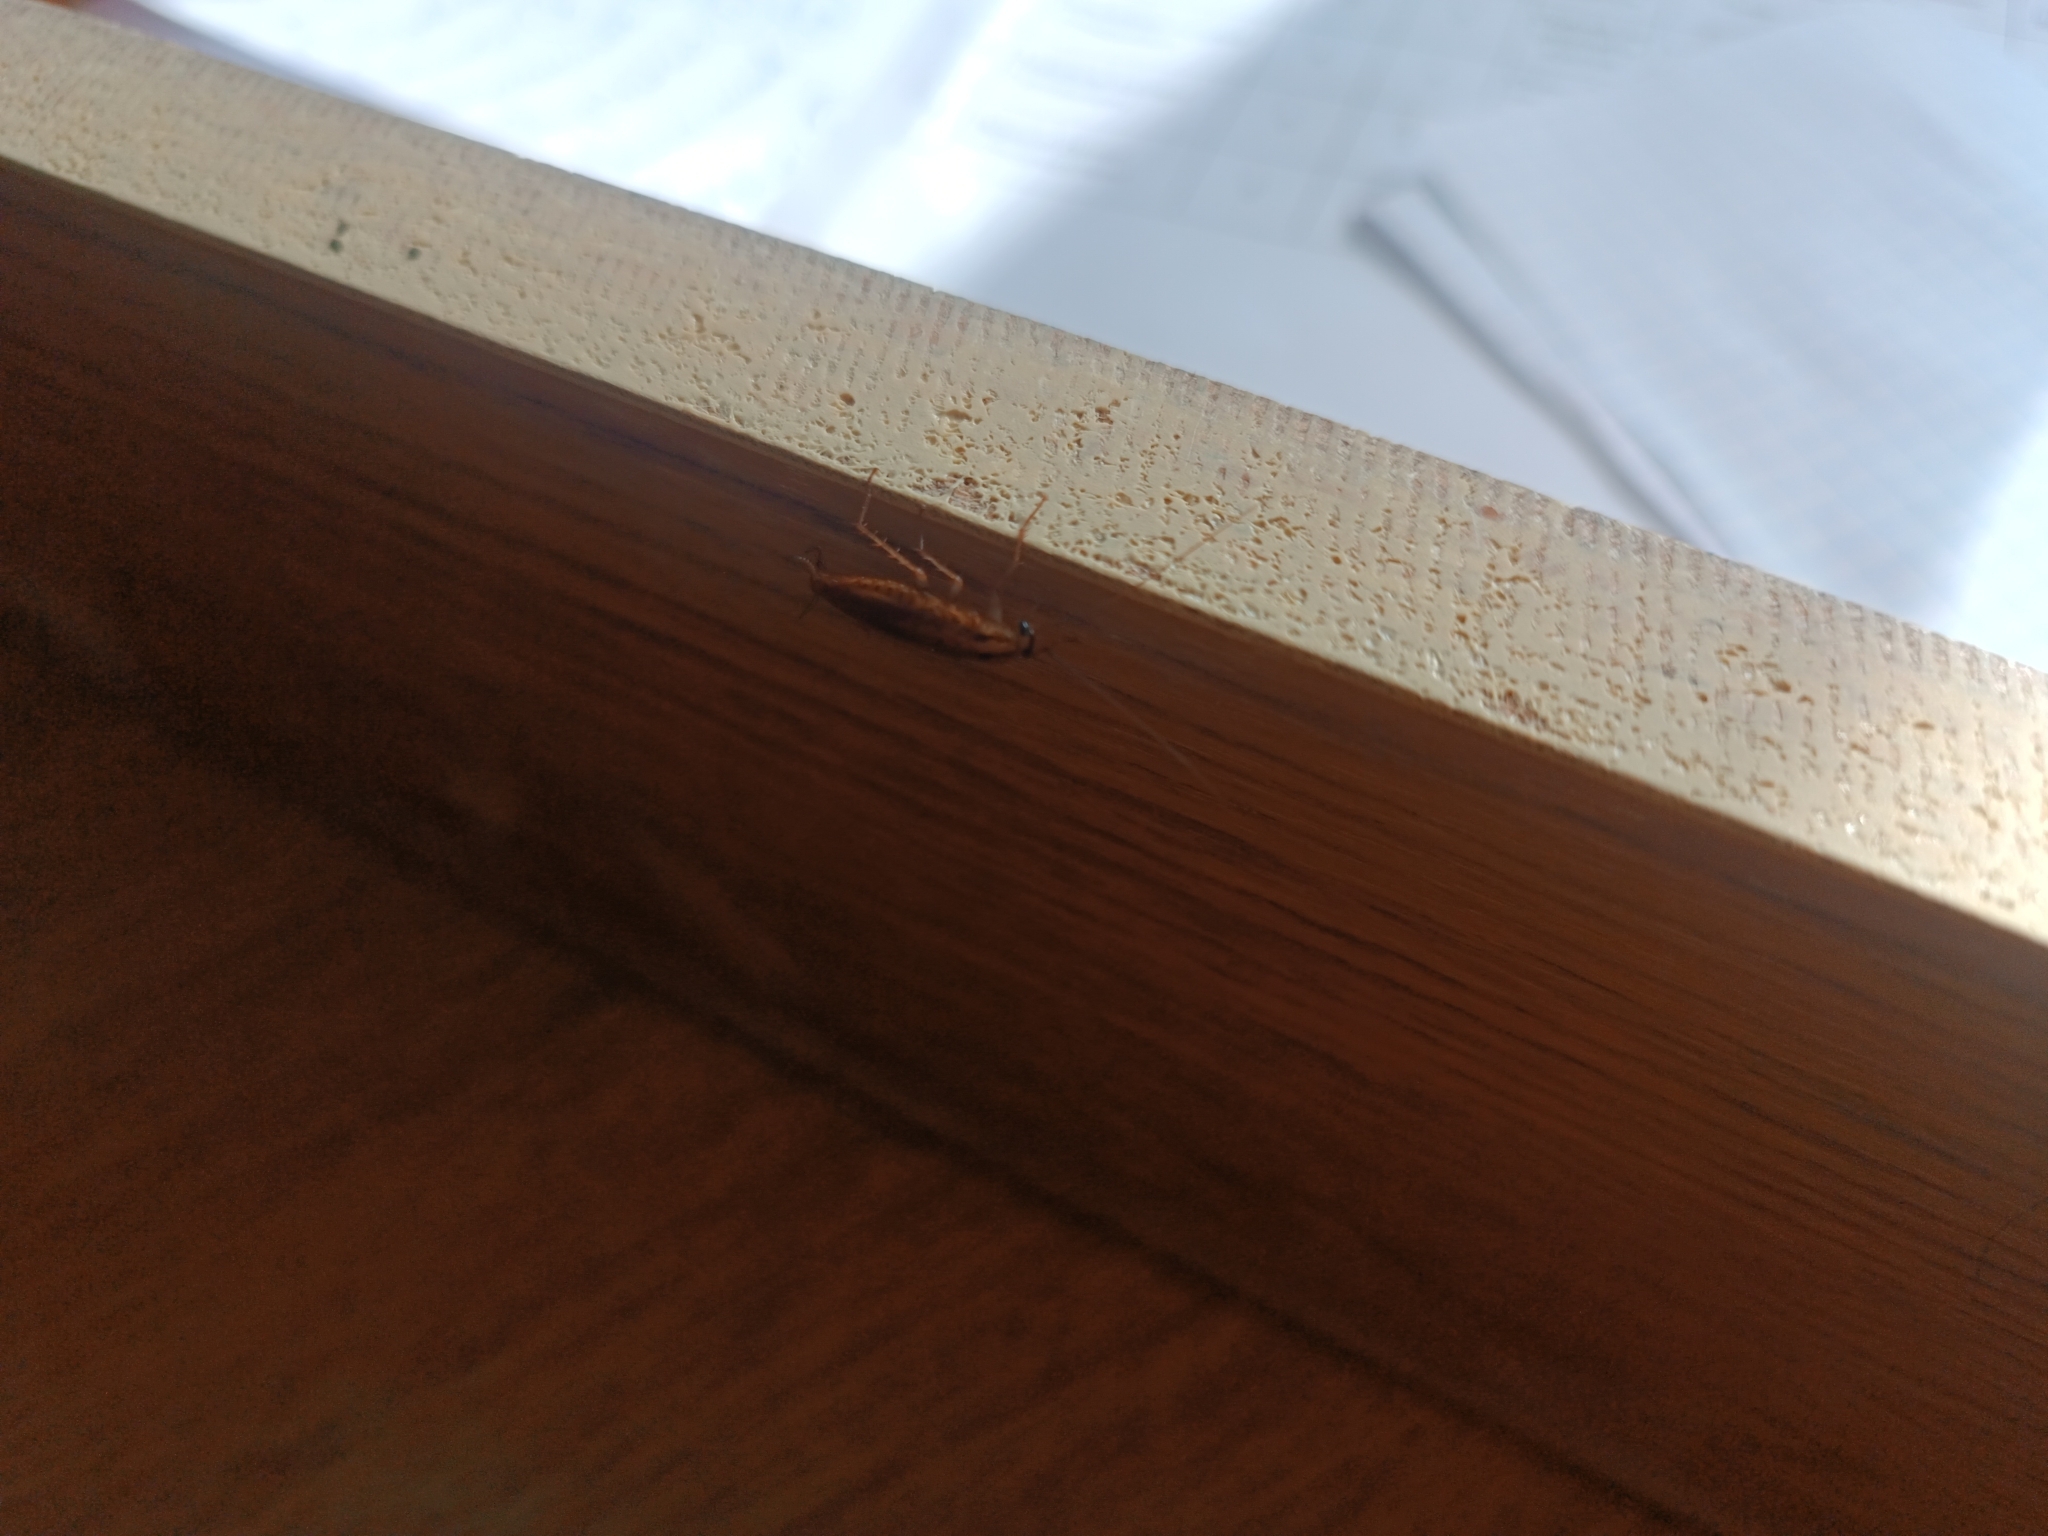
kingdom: Animalia
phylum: Arthropoda
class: Insecta
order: Blattodea
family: Ectobiidae
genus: Blattella
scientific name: Blattella germanica
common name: German cockroach
